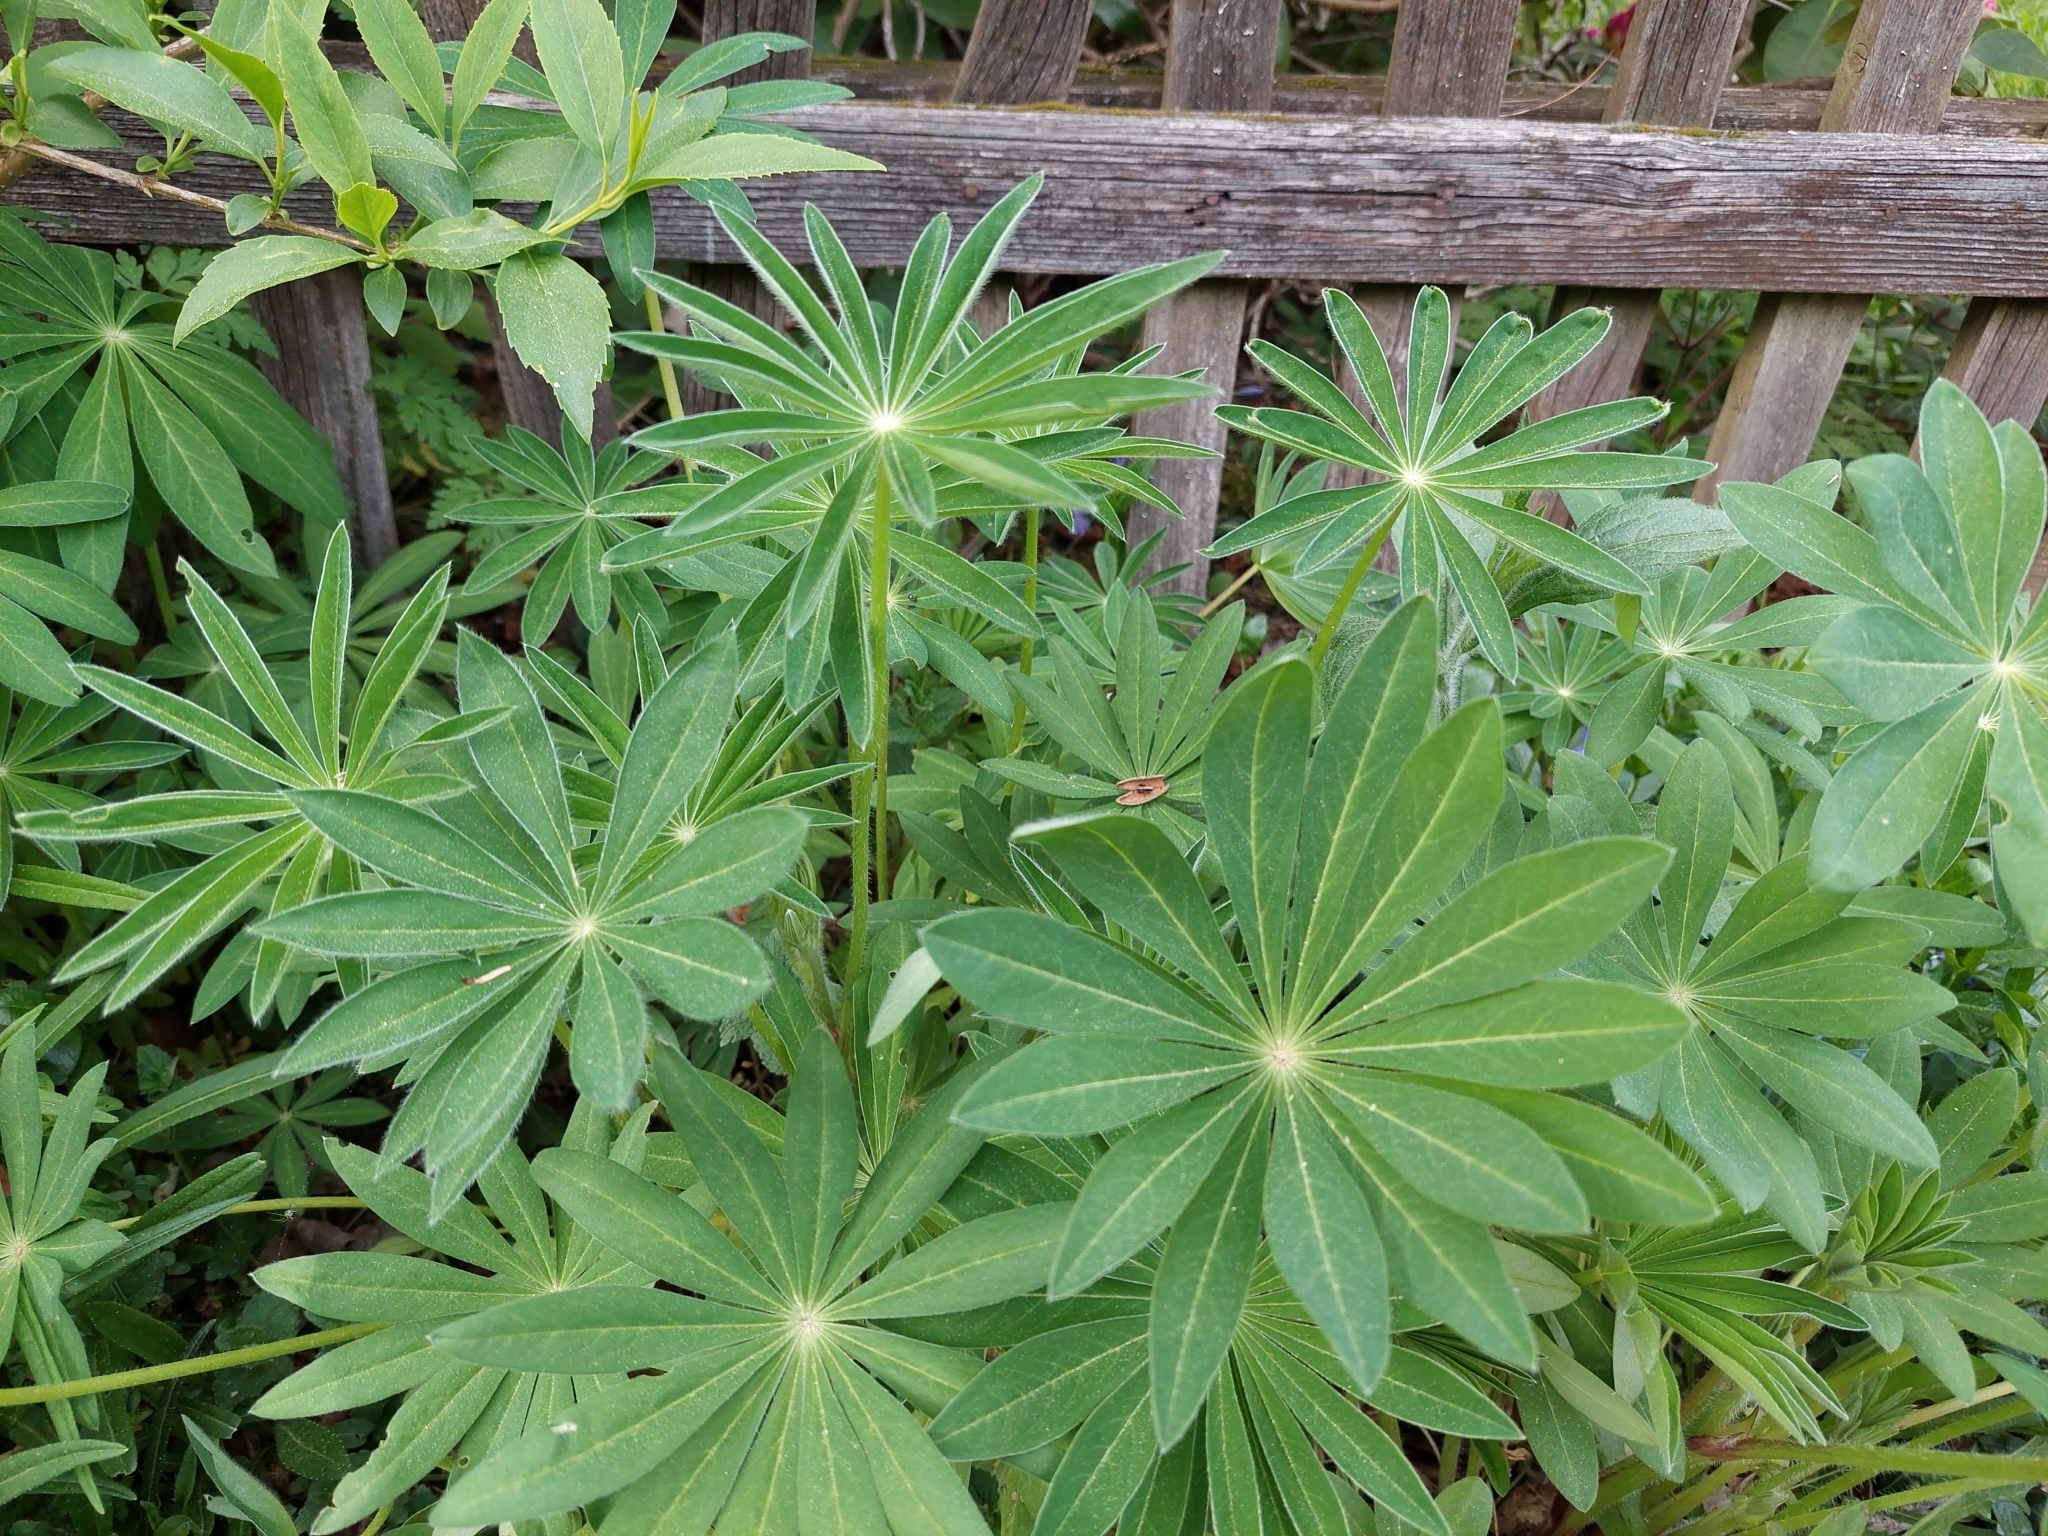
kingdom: Plantae
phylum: Tracheophyta
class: Magnoliopsida
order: Fabales
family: Fabaceae
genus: Lupinus
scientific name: Lupinus polyphyllus
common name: Garden lupin
